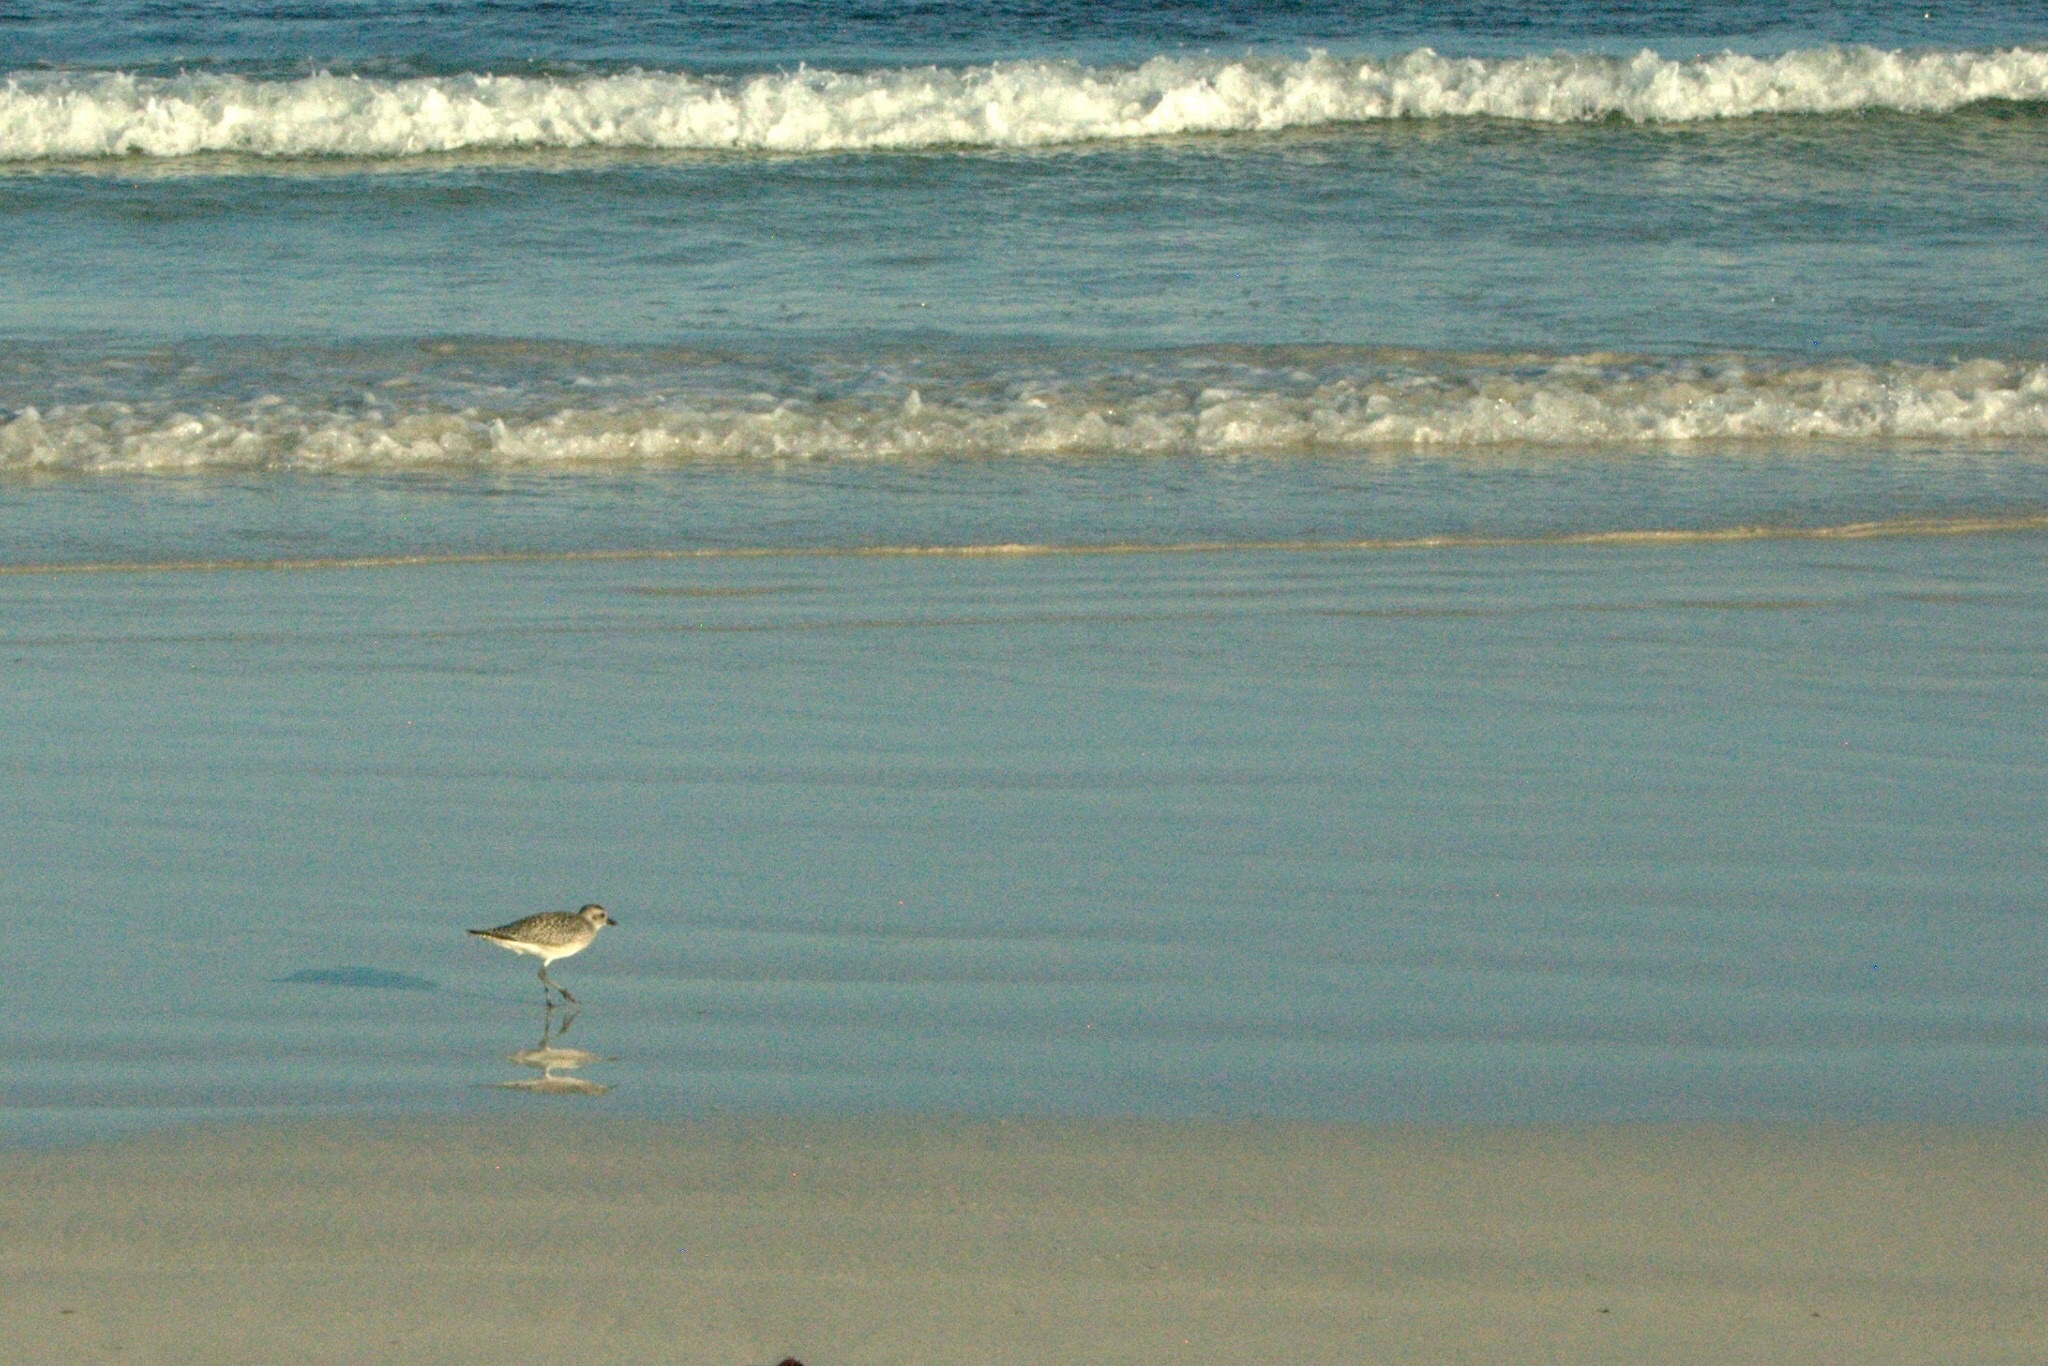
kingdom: Animalia
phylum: Chordata
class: Aves
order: Charadriiformes
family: Charadriidae
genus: Pluvialis
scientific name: Pluvialis squatarola
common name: Grey plover
